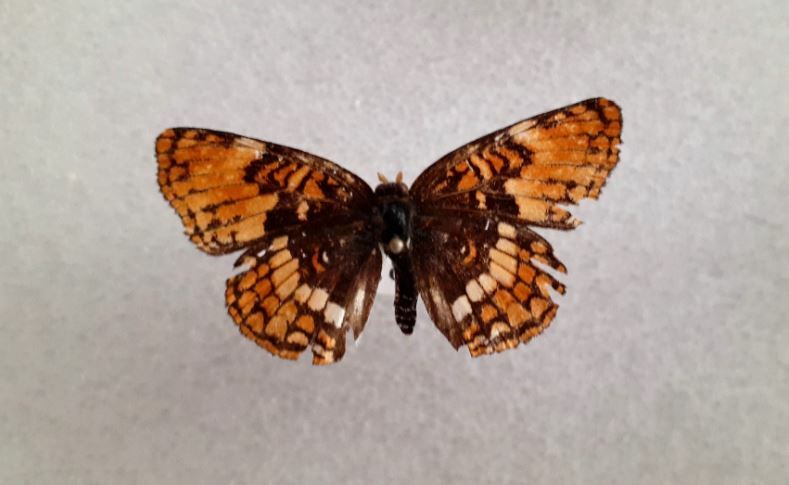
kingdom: Animalia
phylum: Arthropoda
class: Insecta
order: Lepidoptera
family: Nymphalidae
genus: Chlosyne
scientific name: Chlosyne hoffmanni
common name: Hoffmann's checkerspot
